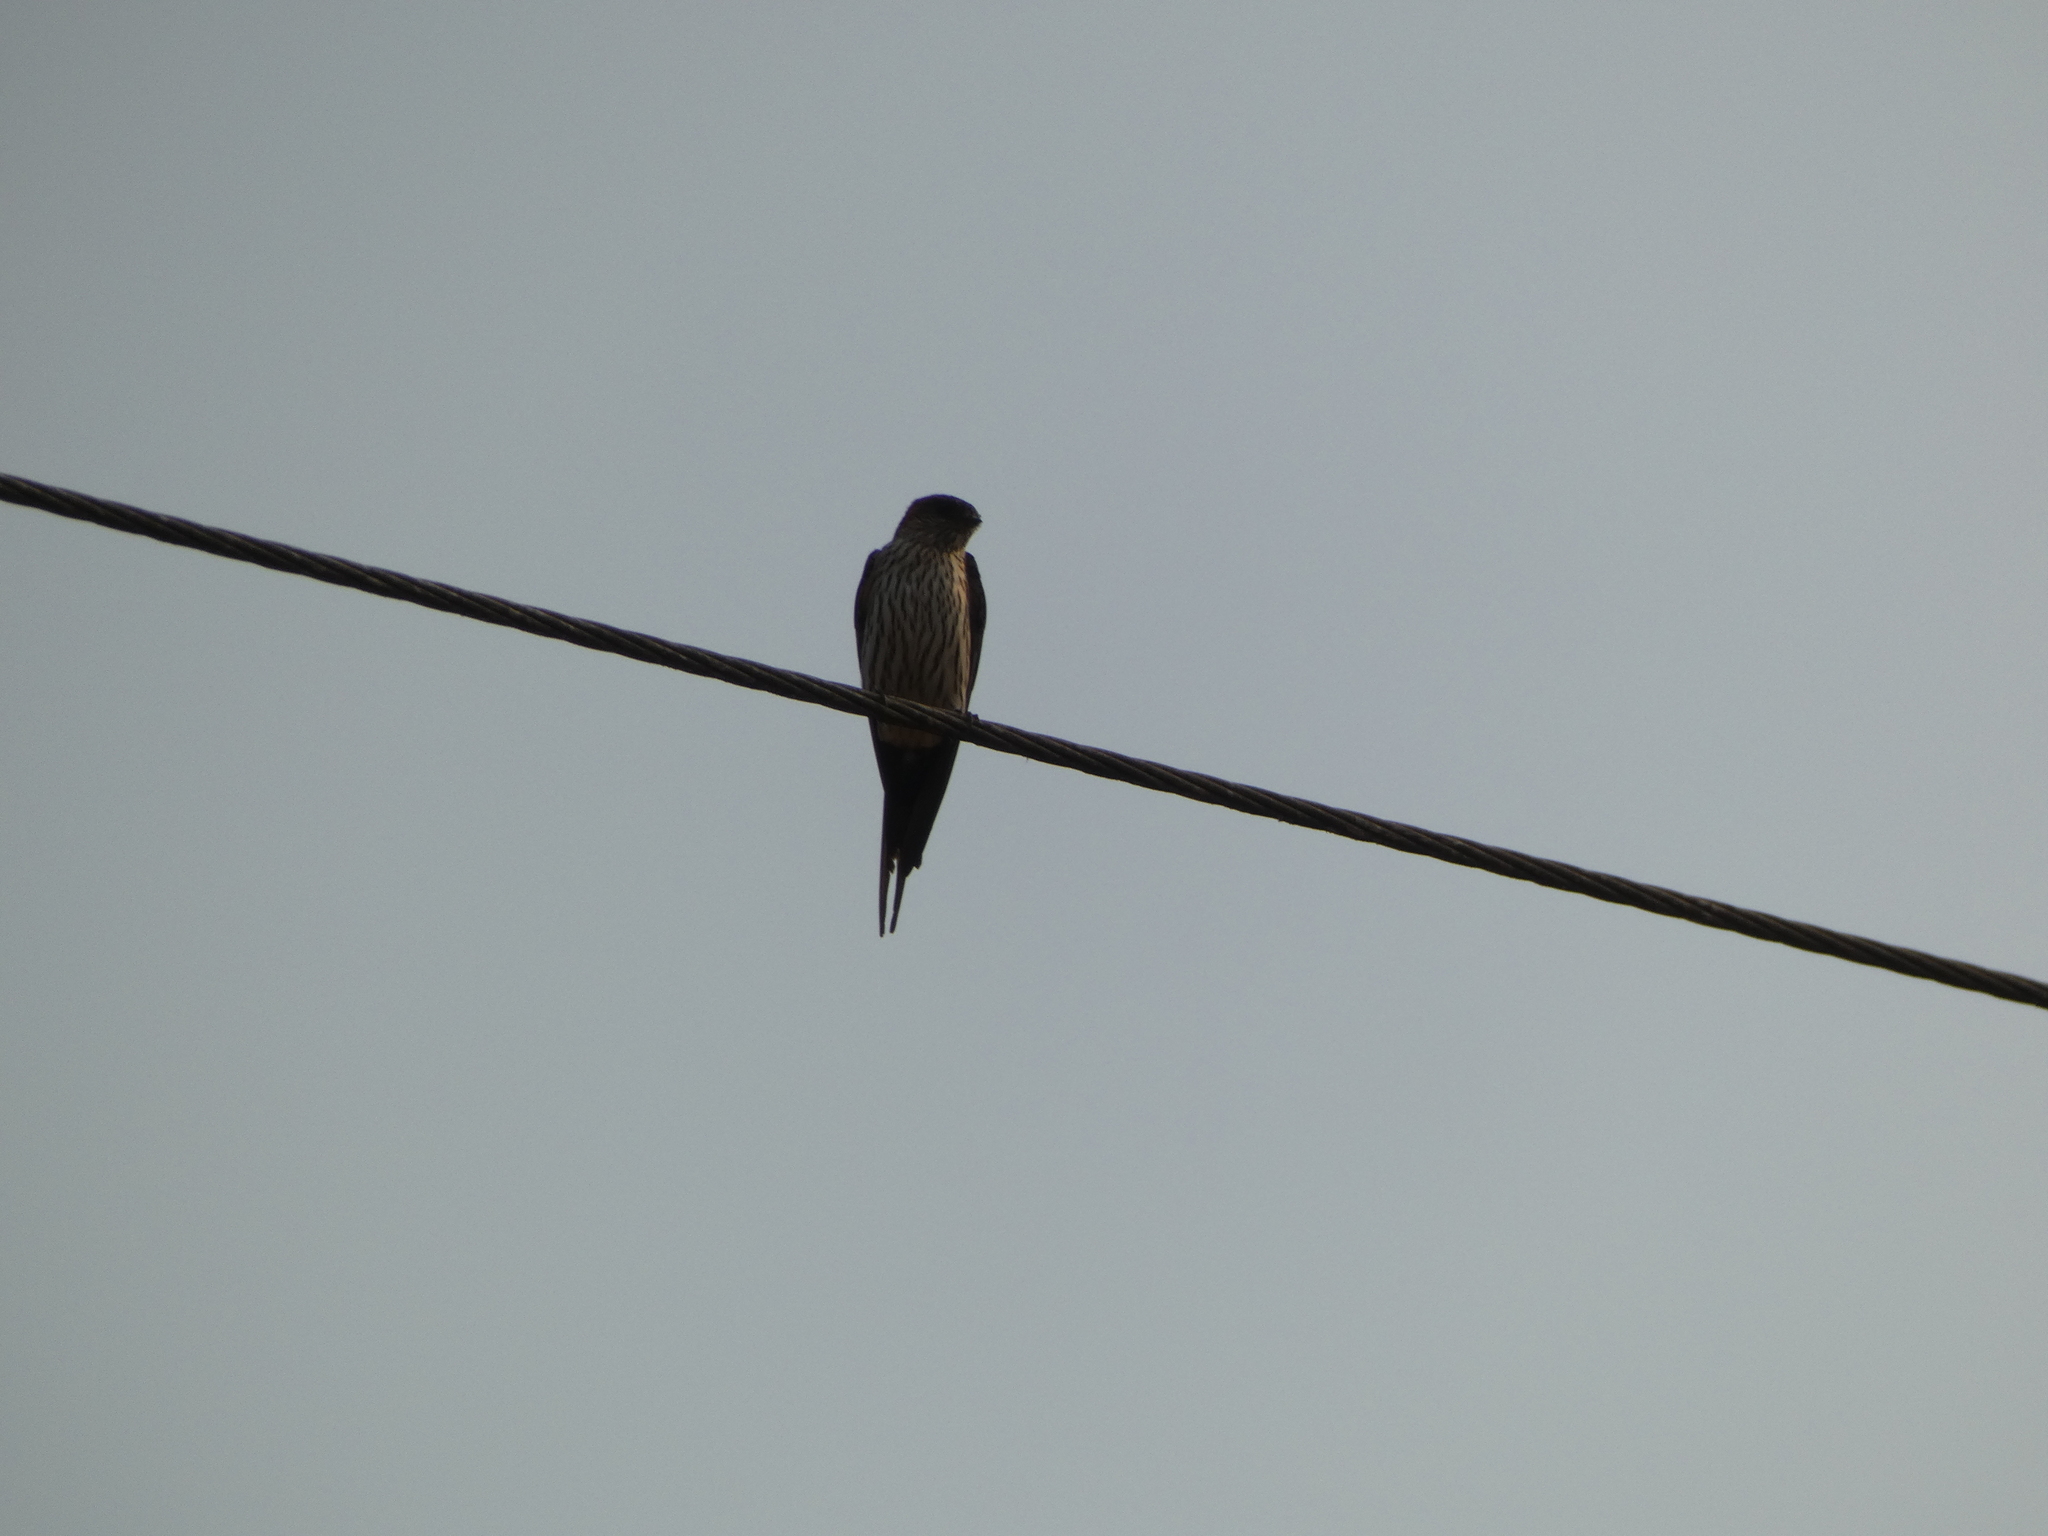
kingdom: Animalia
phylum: Chordata
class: Aves
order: Passeriformes
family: Hirundinidae
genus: Cecropis
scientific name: Cecropis striolata
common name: Striated swallow
